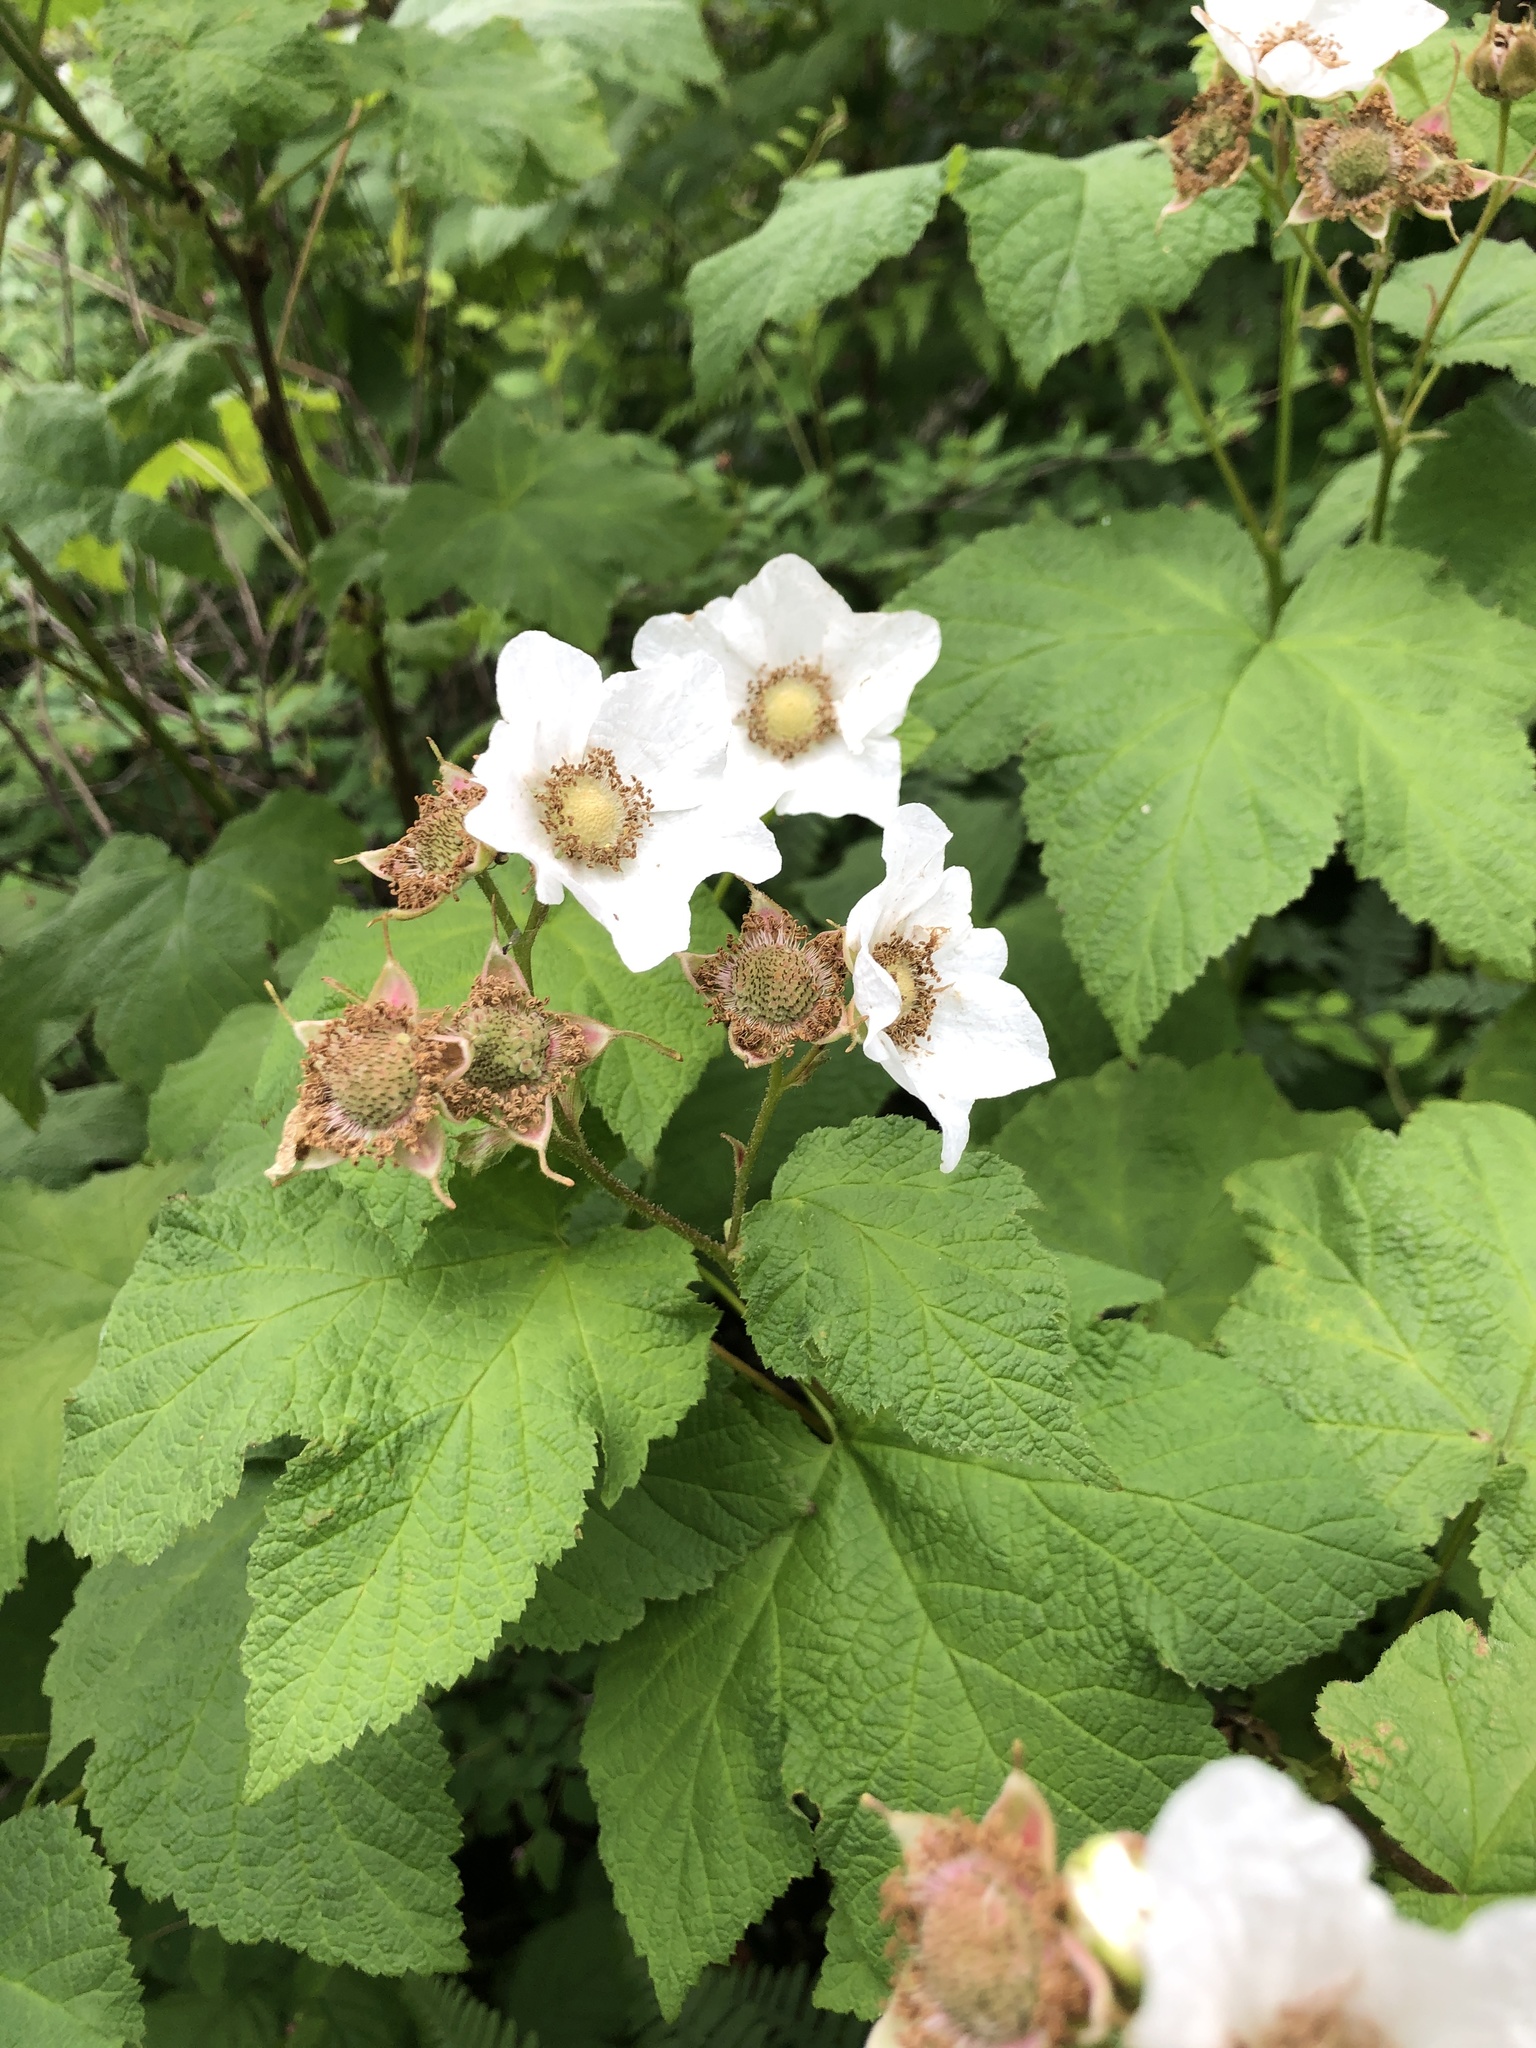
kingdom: Plantae
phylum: Tracheophyta
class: Magnoliopsida
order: Rosales
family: Rosaceae
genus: Rubus
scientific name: Rubus parviflorus
